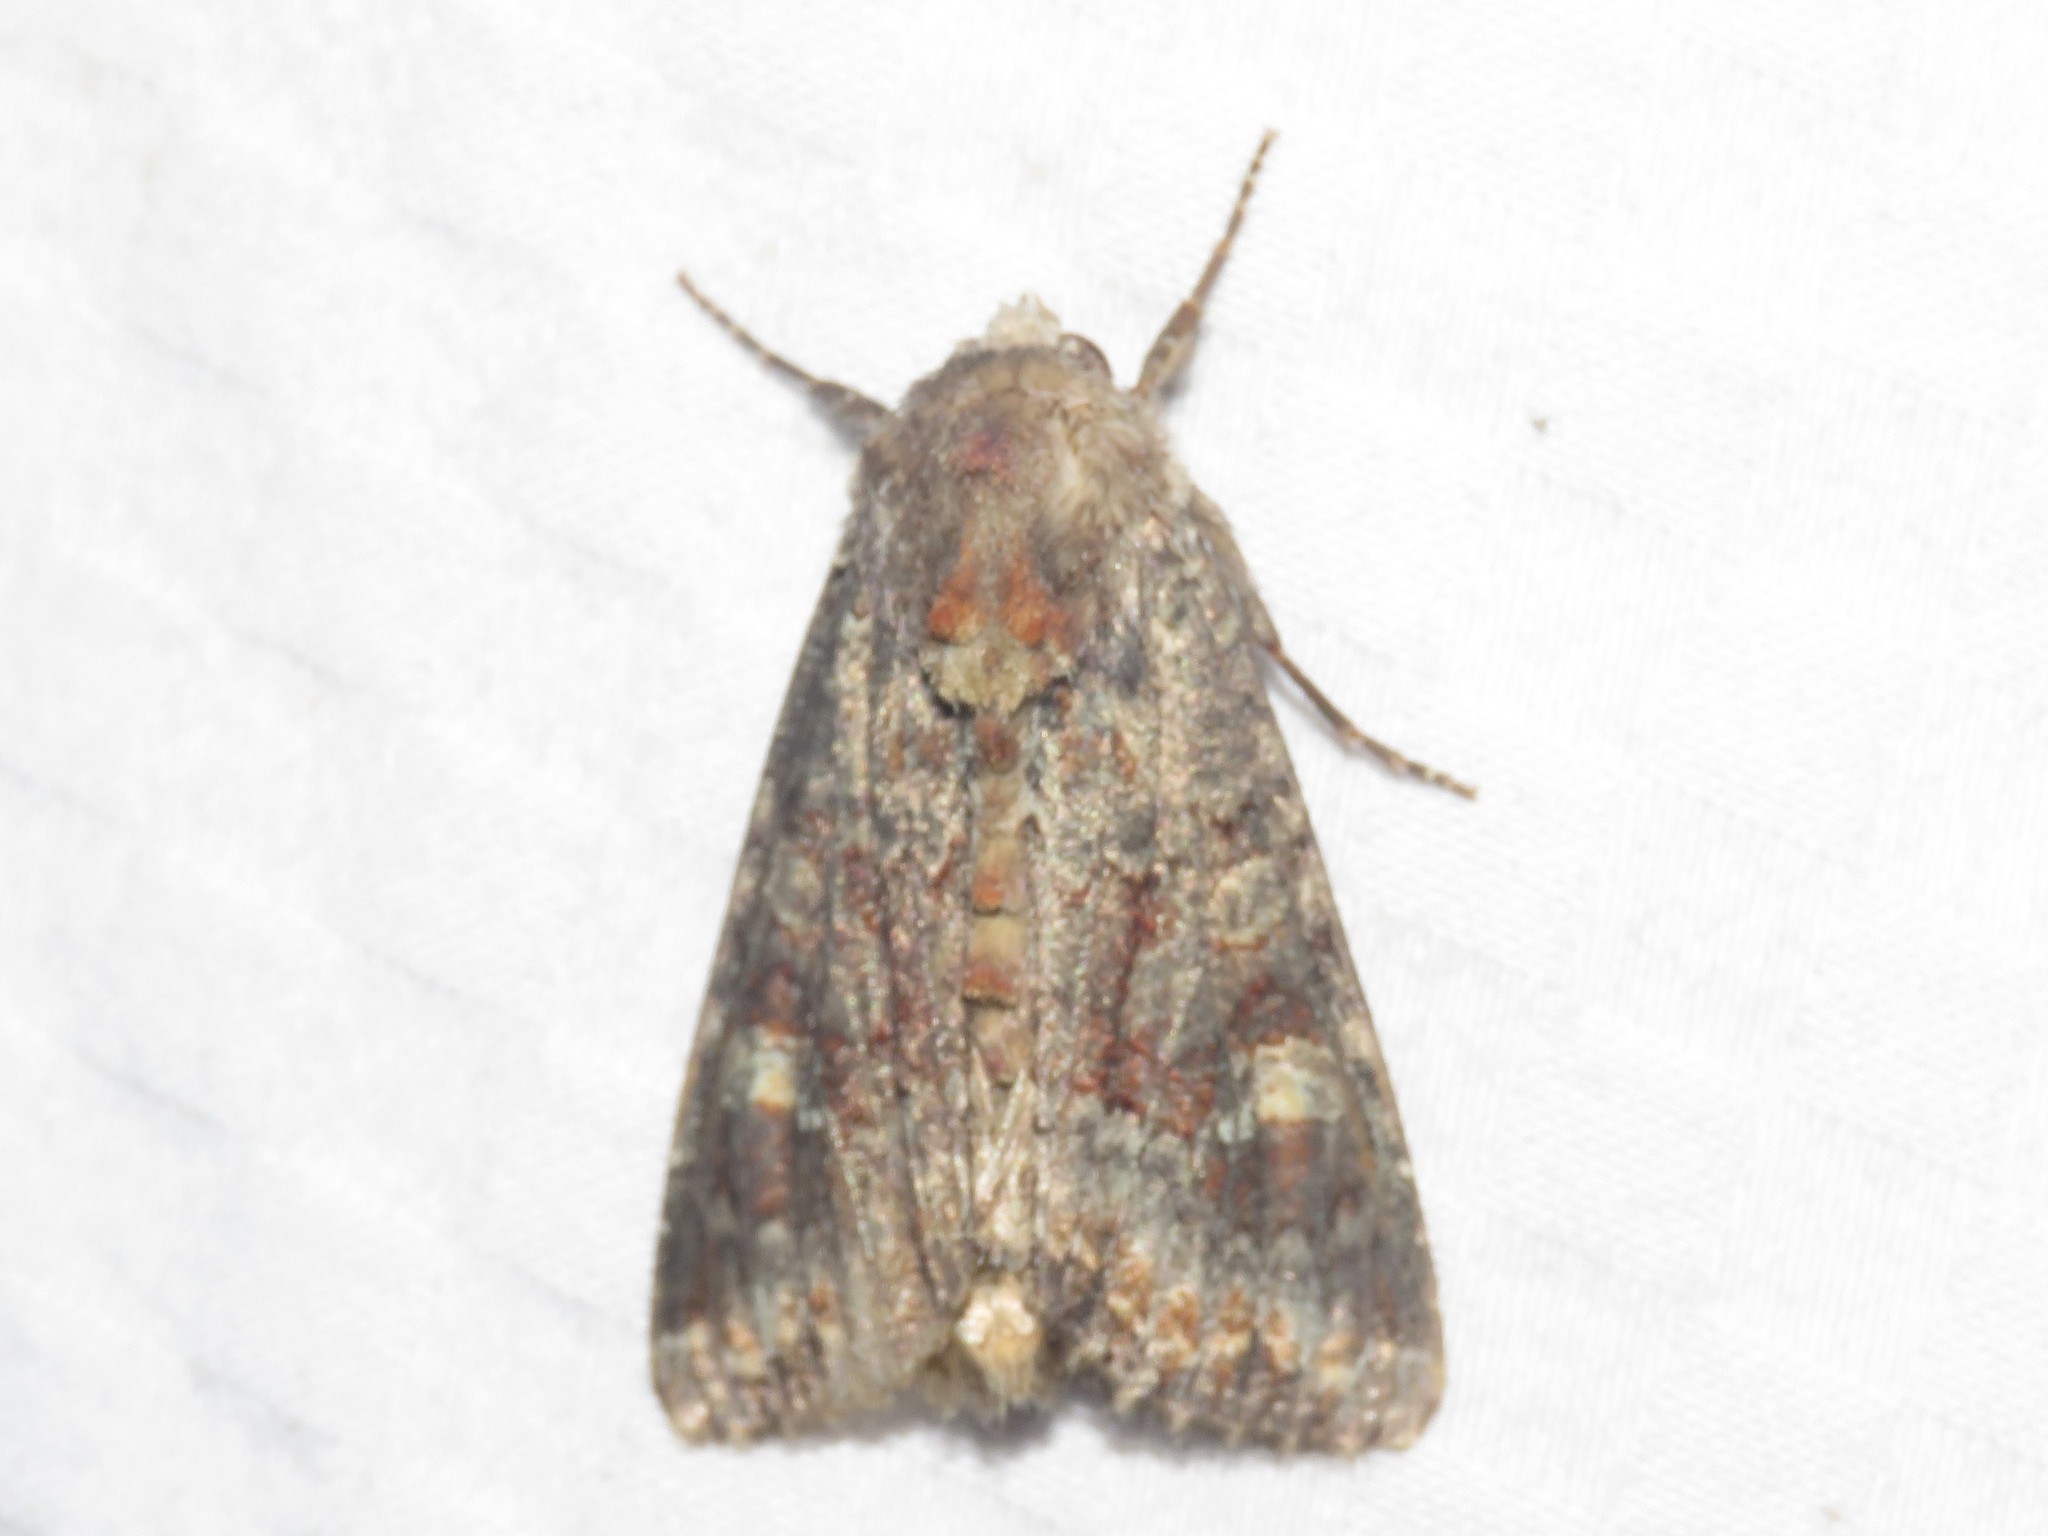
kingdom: Animalia
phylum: Arthropoda
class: Insecta
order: Lepidoptera
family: Noctuidae
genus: Apamea
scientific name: Apamea amputatrix
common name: Yellow-headed cutworm moth
